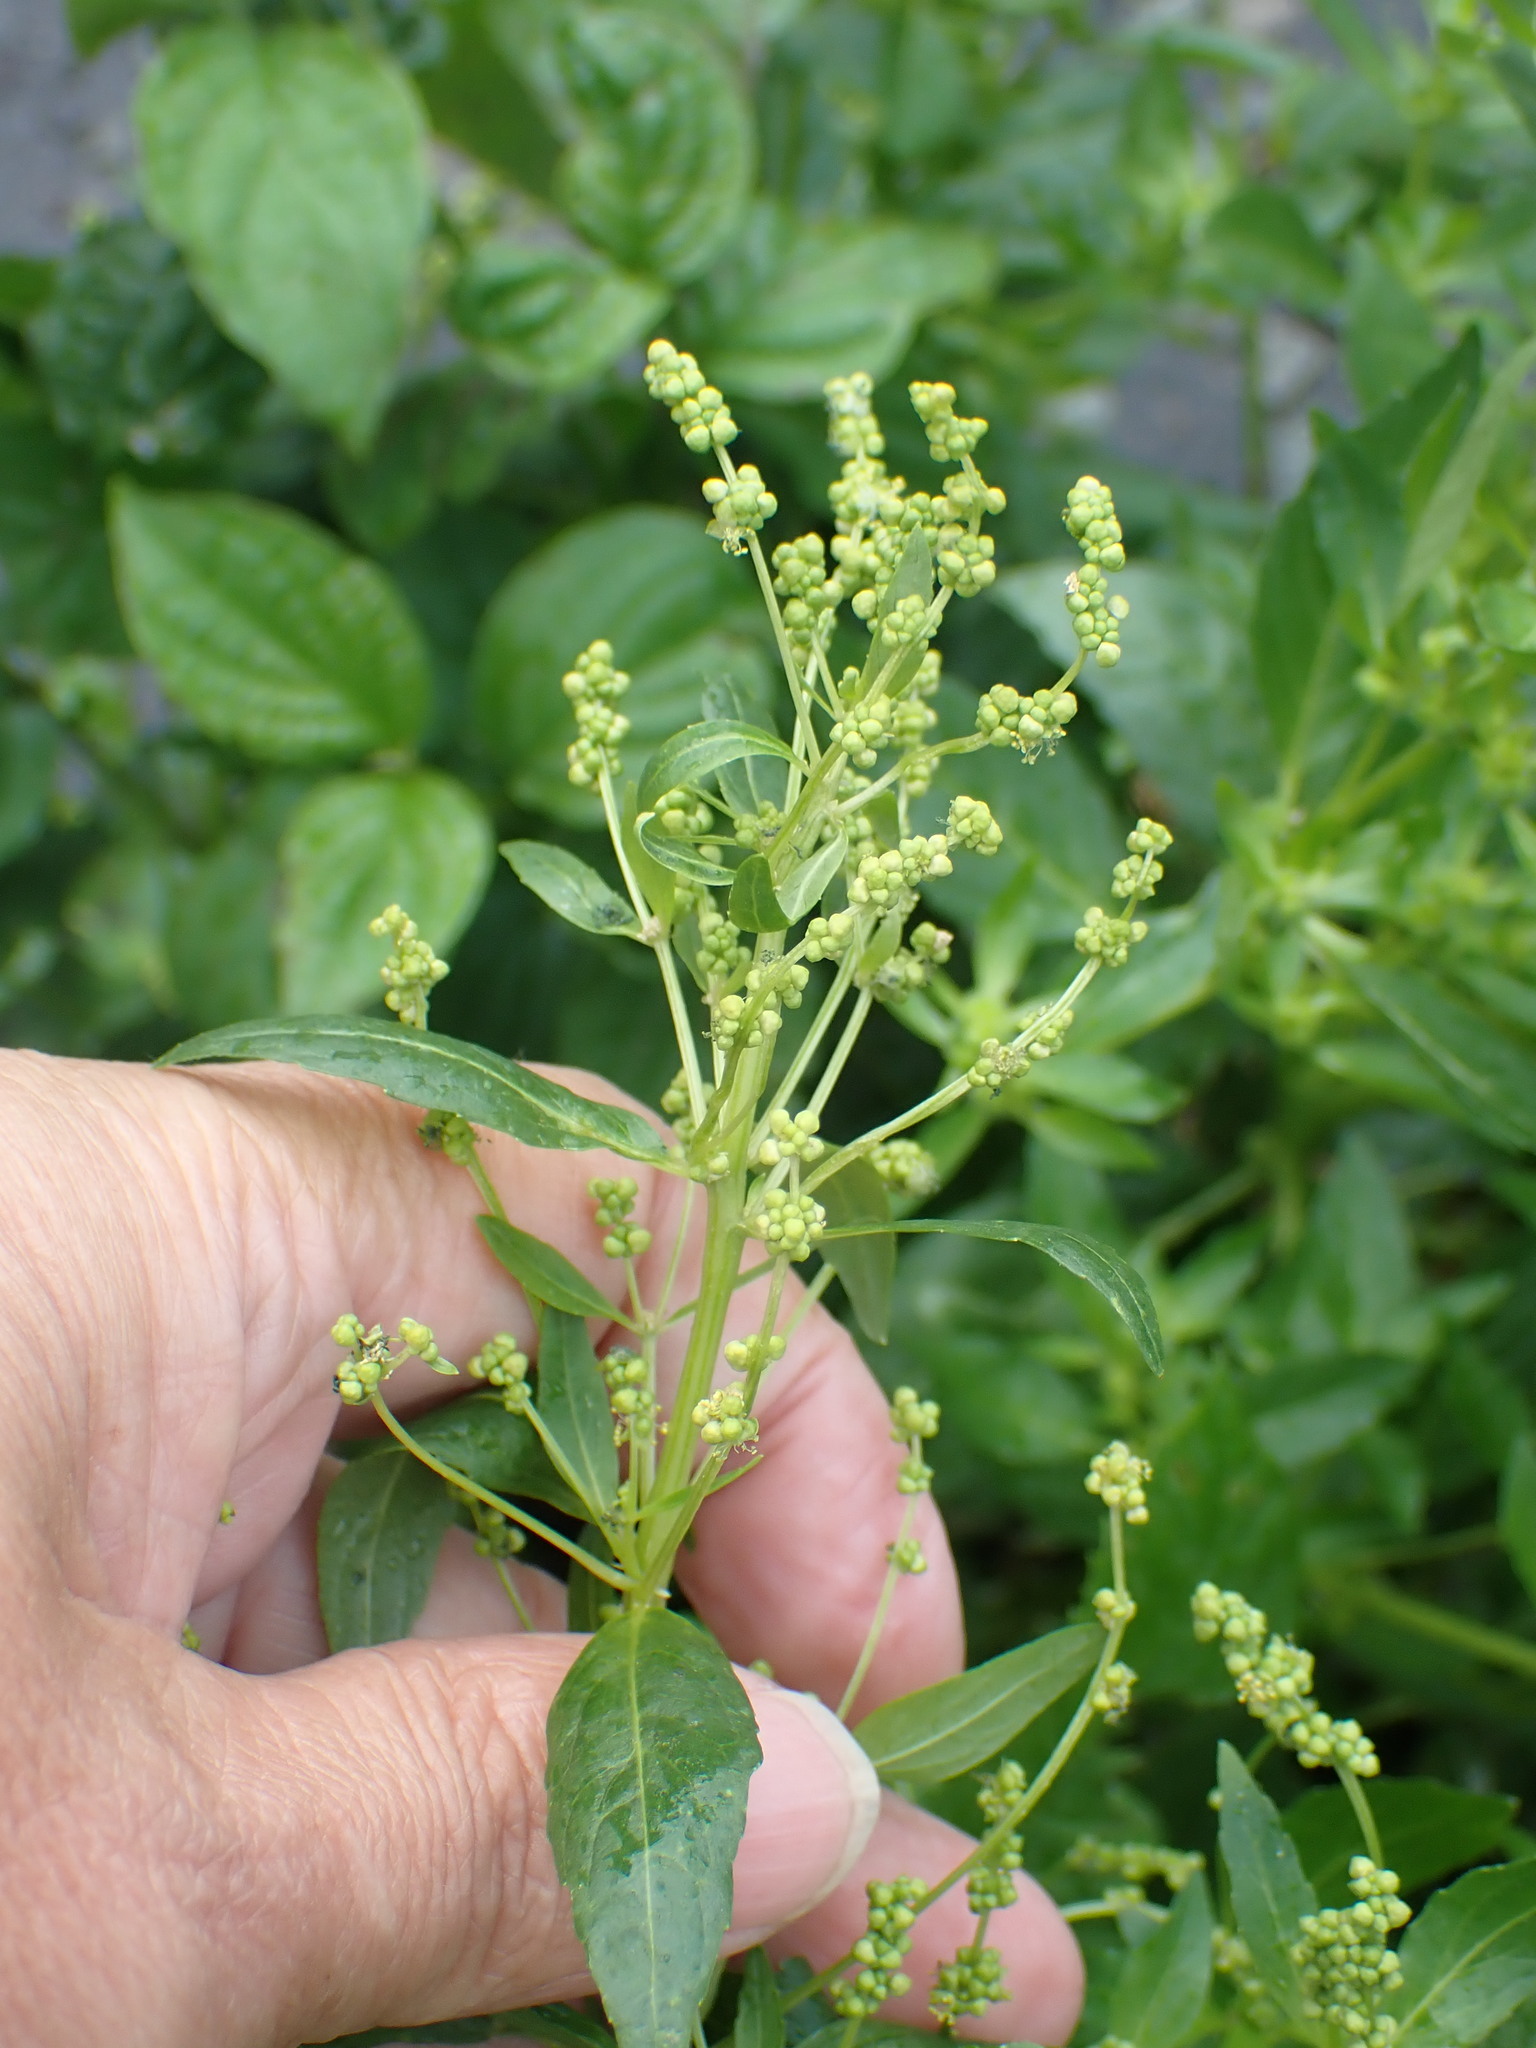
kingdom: Plantae
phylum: Tracheophyta
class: Magnoliopsida
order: Malpighiales
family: Euphorbiaceae
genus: Mercurialis
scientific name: Mercurialis annua
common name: Annual mercury
